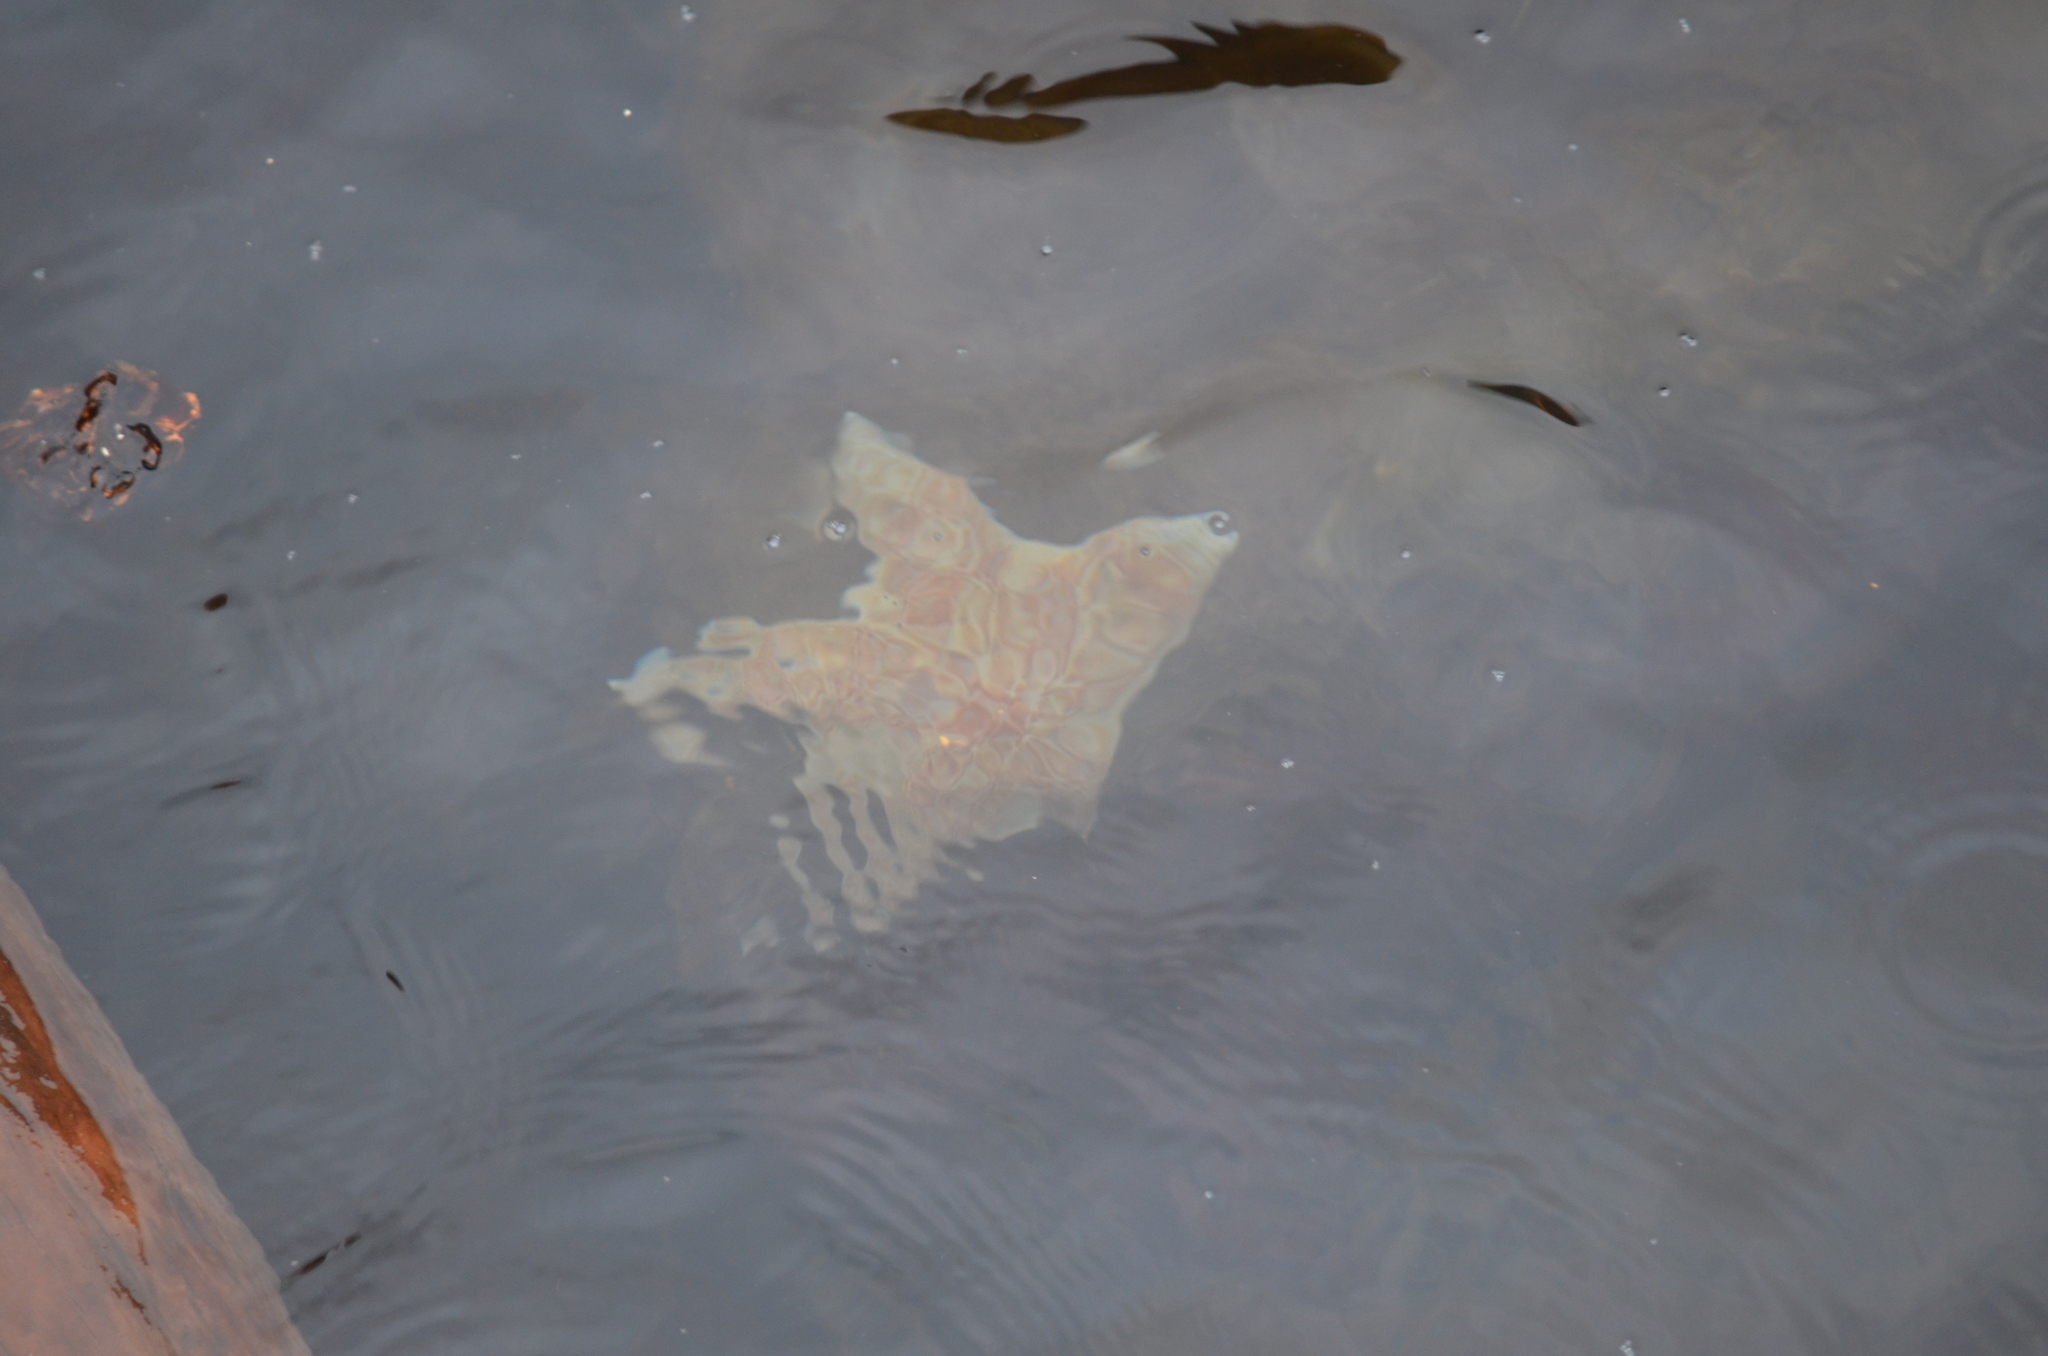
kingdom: Animalia
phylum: Echinodermata
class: Asteroidea
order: Valvatida
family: Asteropseidae
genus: Dermasterias
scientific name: Dermasterias imbricata
